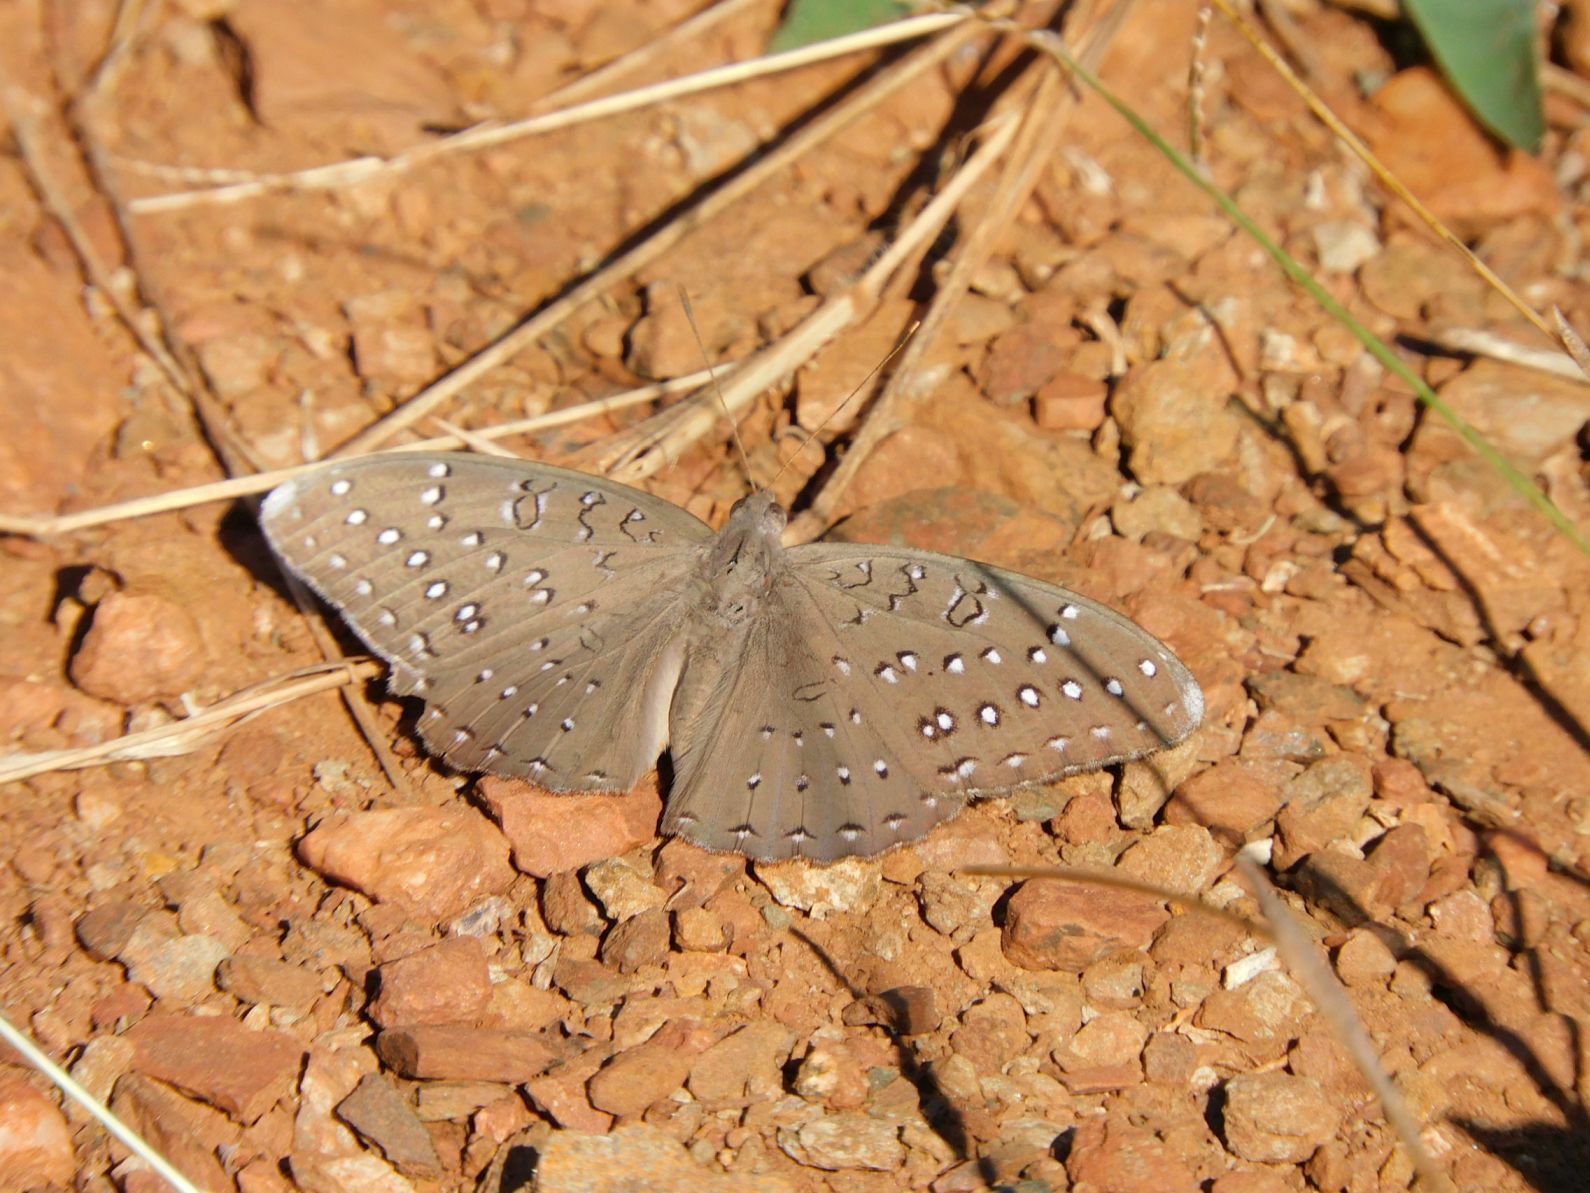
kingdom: Animalia
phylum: Arthropoda
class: Insecta
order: Lepidoptera
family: Nymphalidae
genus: Hamanumida
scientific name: Hamanumida daedalus
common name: Guinea-fowl butterfly
